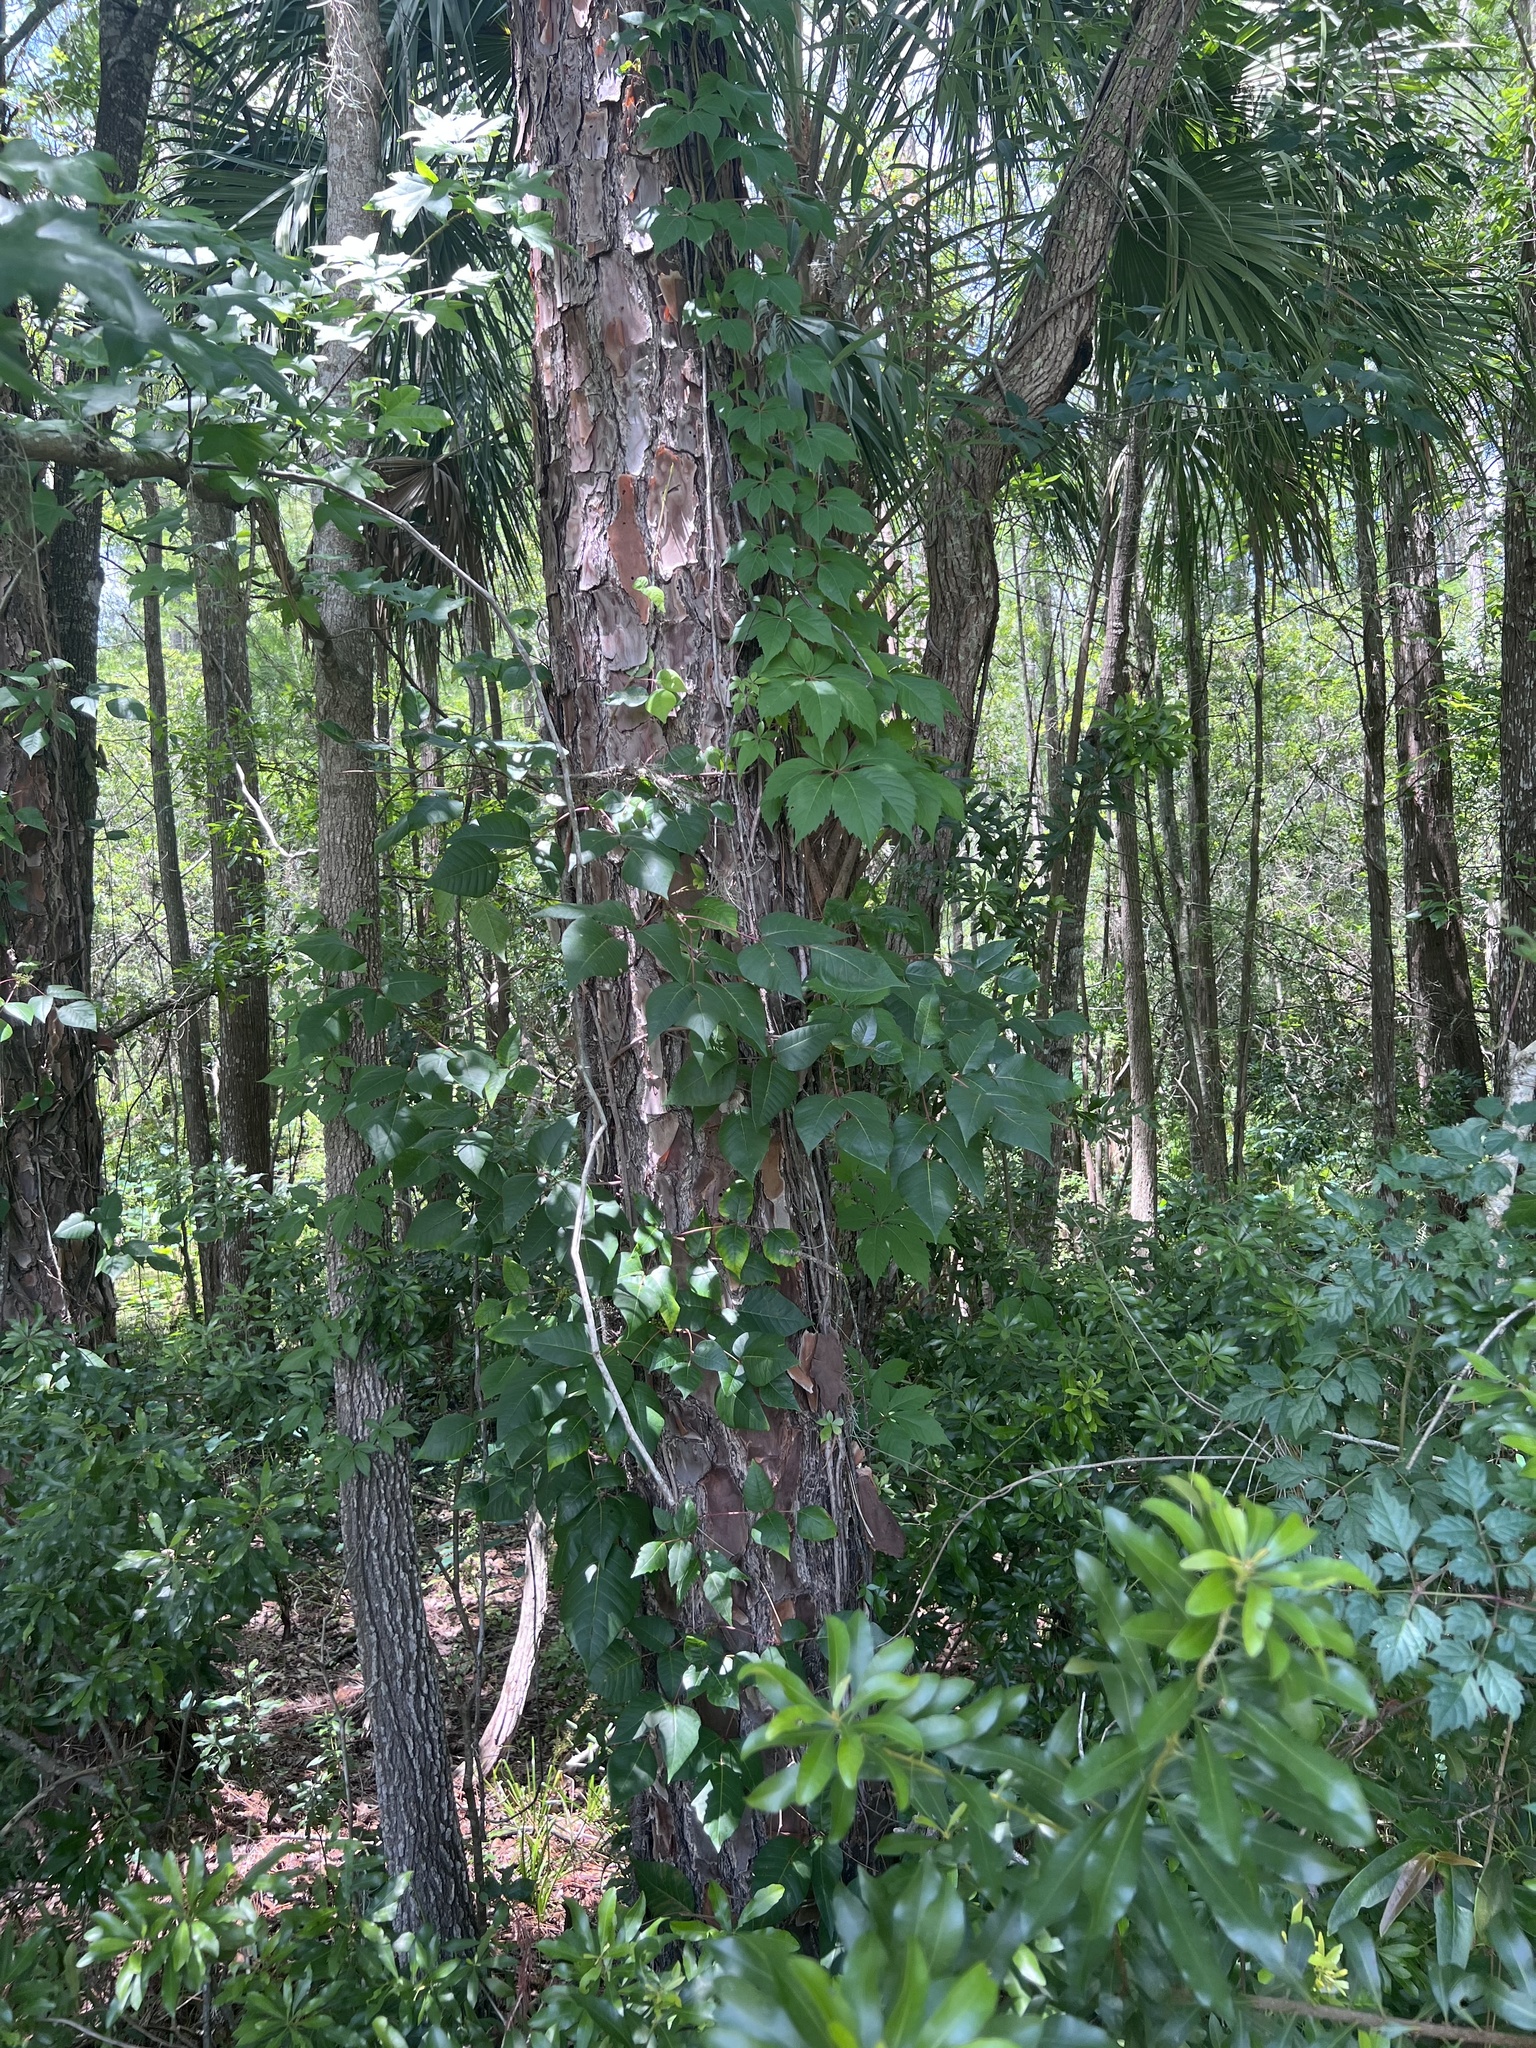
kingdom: Plantae
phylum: Tracheophyta
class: Magnoliopsida
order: Sapindales
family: Anacardiaceae
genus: Toxicodendron
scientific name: Toxicodendron radicans
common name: Poison ivy
